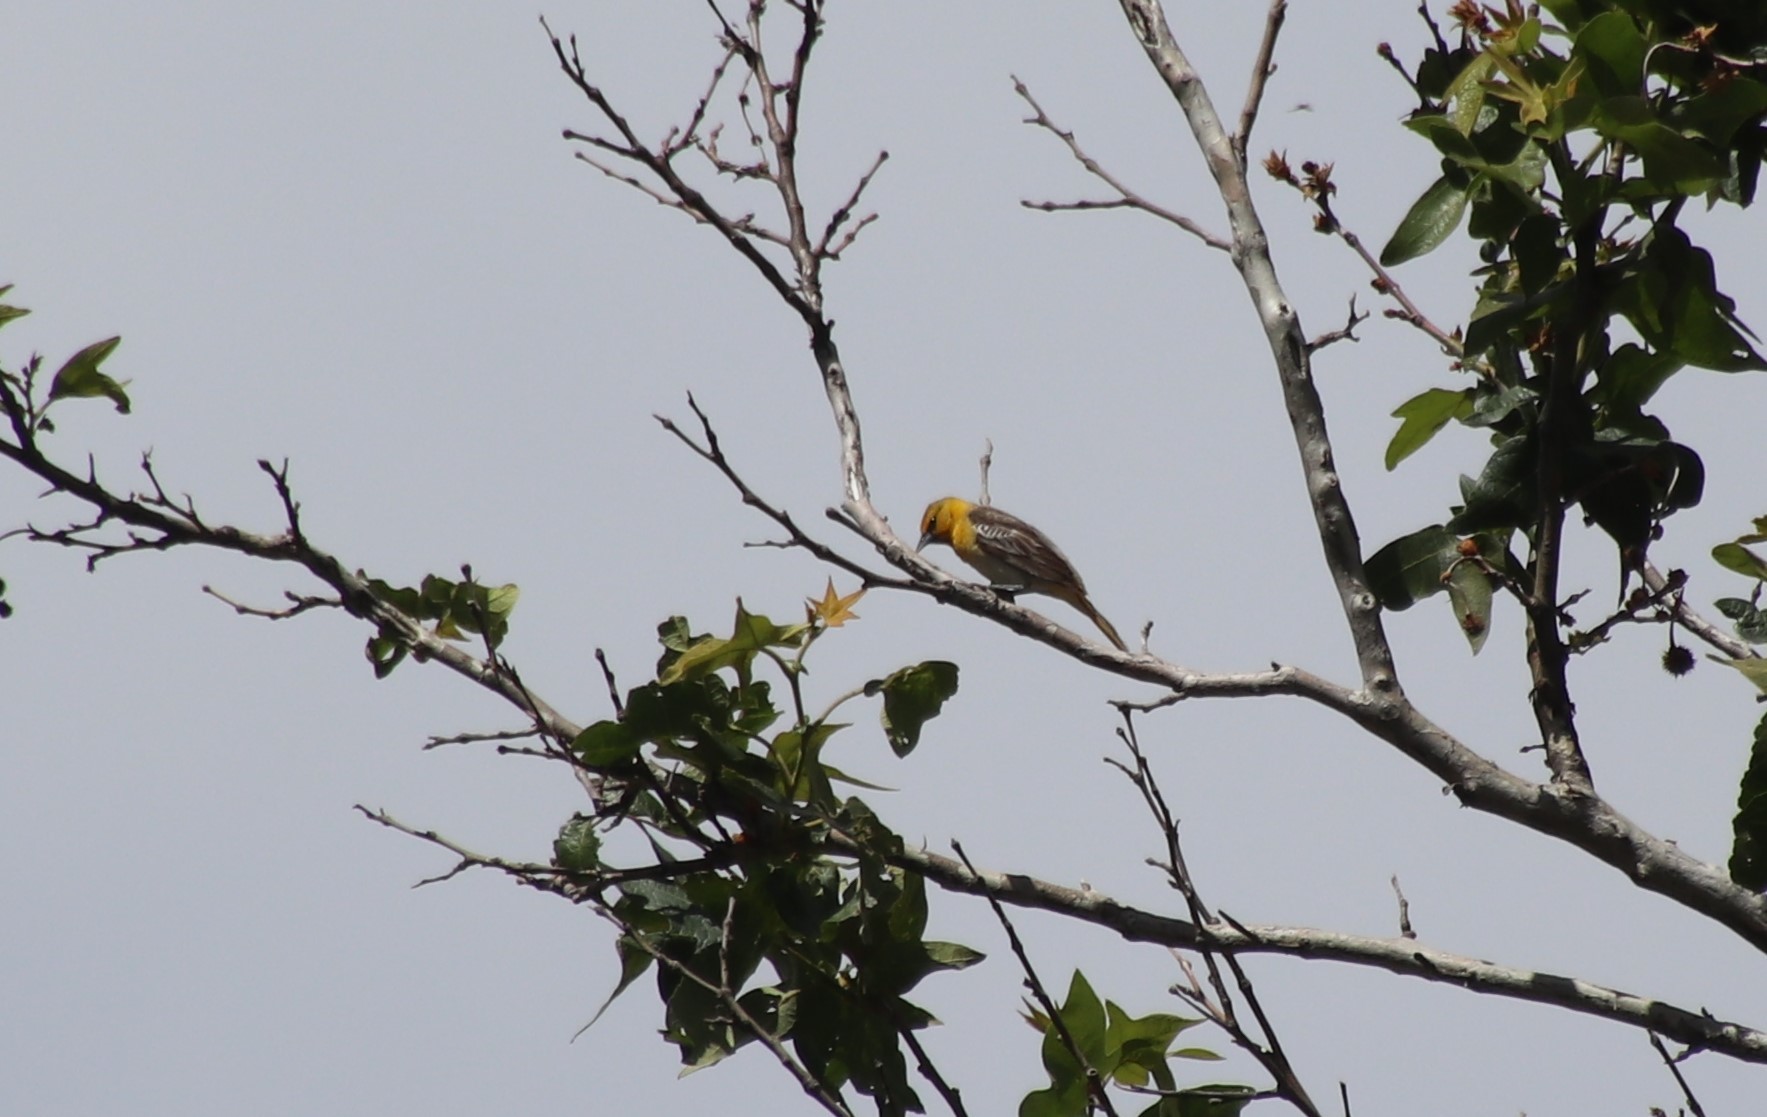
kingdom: Animalia
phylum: Chordata
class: Aves
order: Passeriformes
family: Icteridae
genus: Icterus
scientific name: Icterus bullockii
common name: Bullock's oriole
